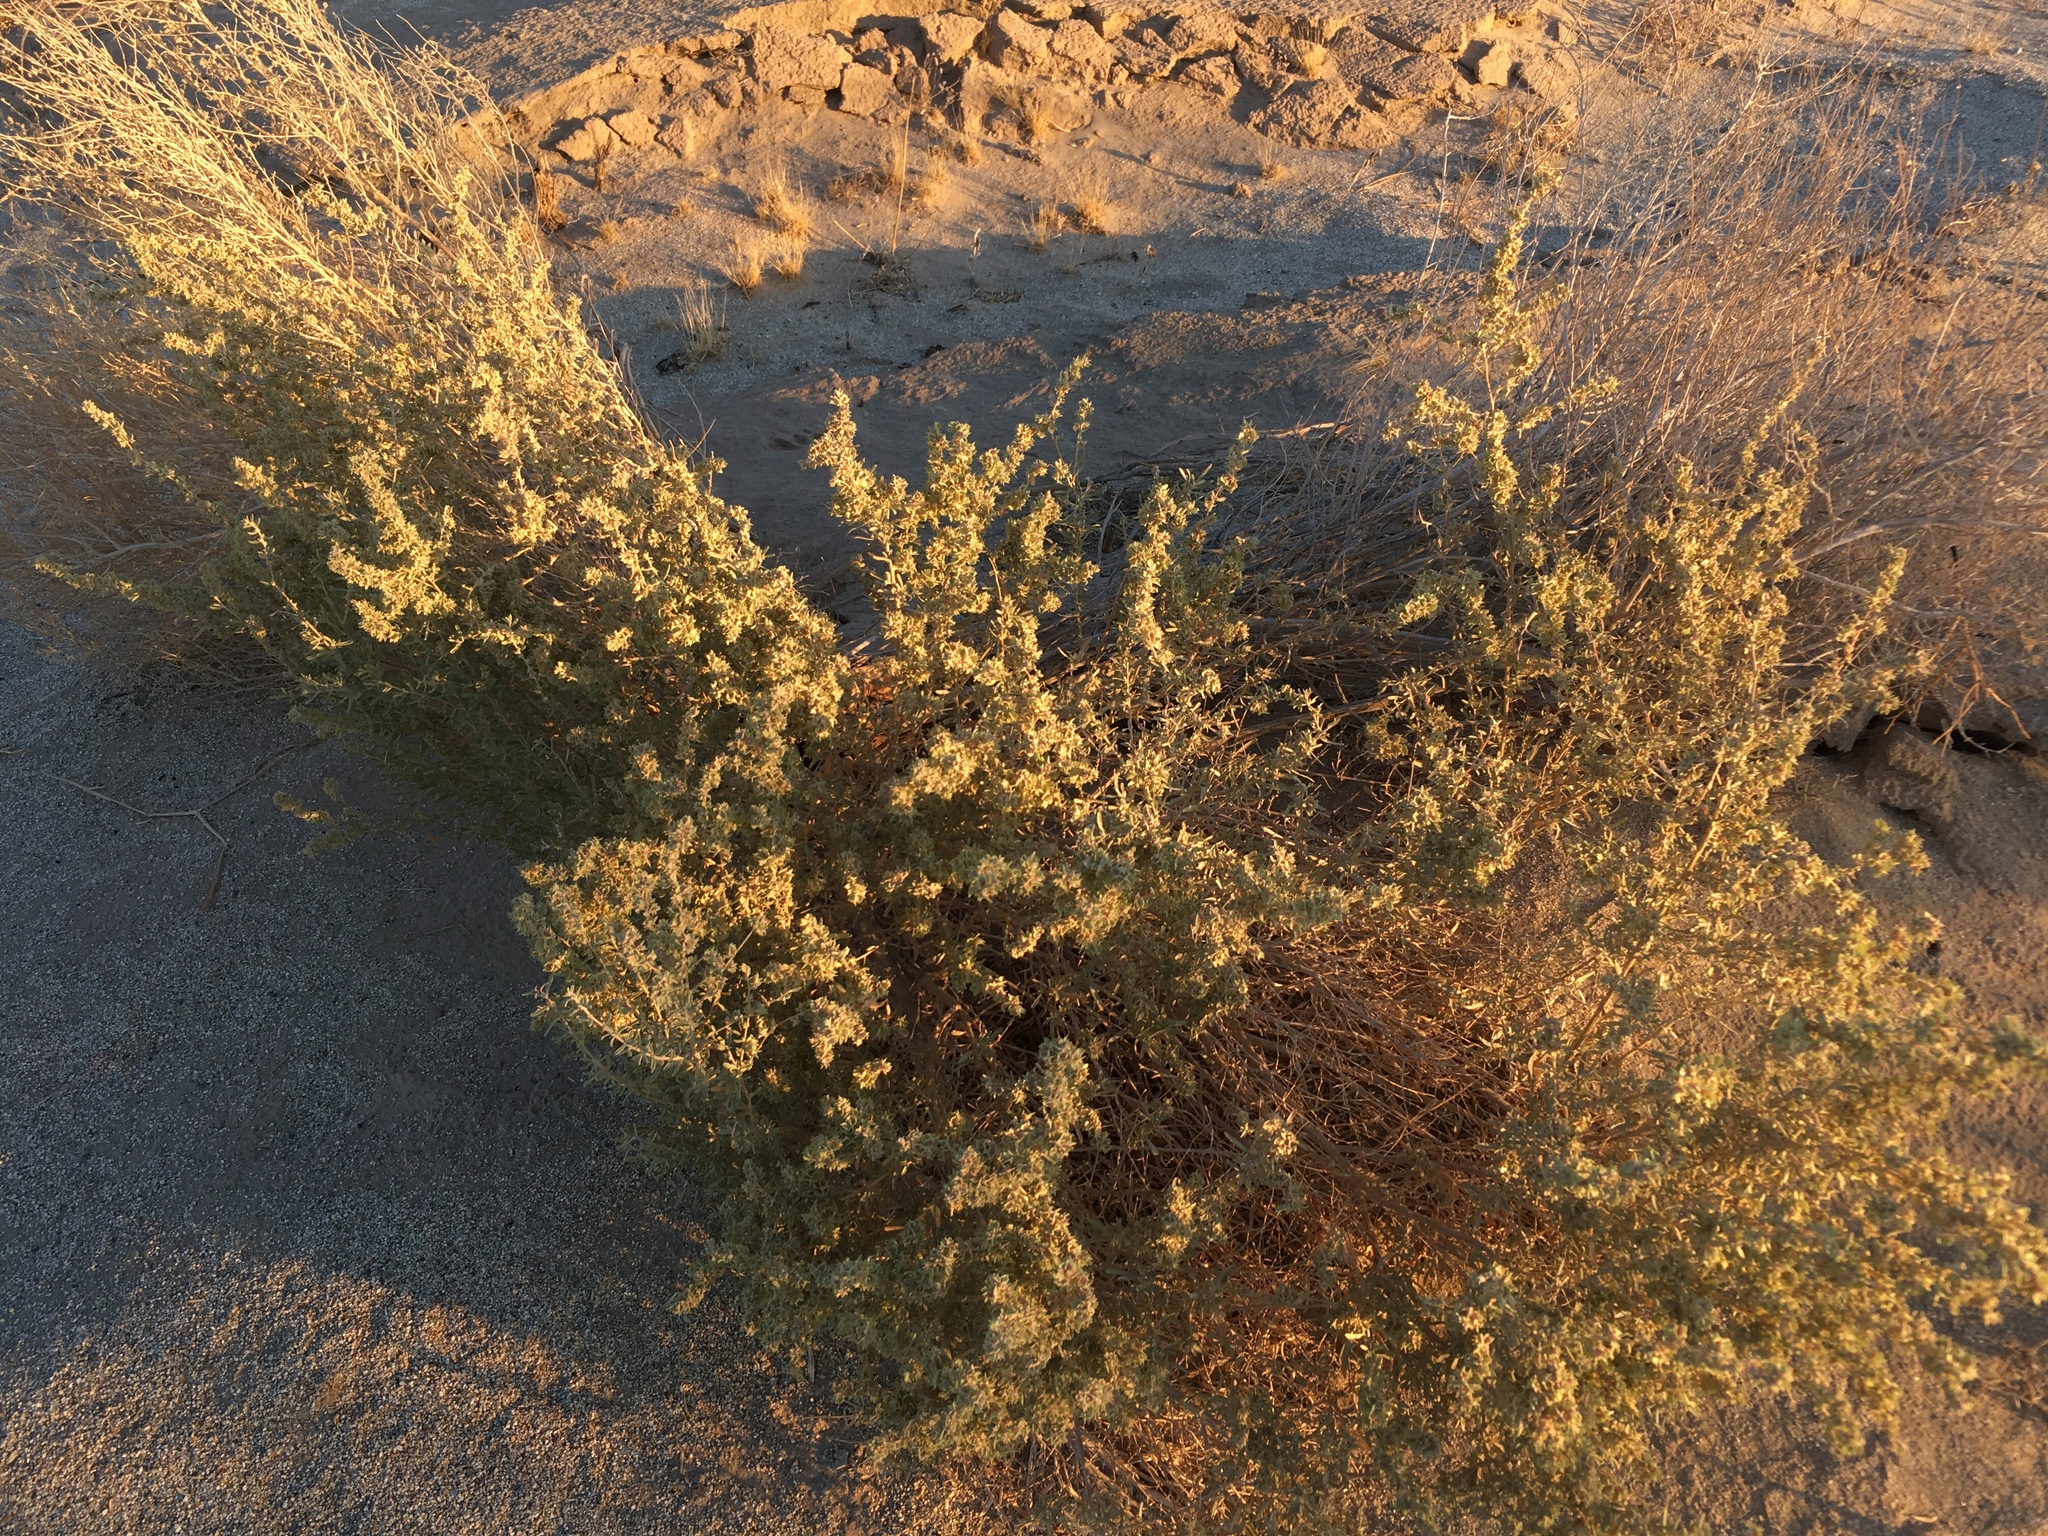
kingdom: Plantae
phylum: Tracheophyta
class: Magnoliopsida
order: Caryophyllales
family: Amaranthaceae
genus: Atriplex
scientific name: Atriplex canescens
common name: Four-wing saltbush
